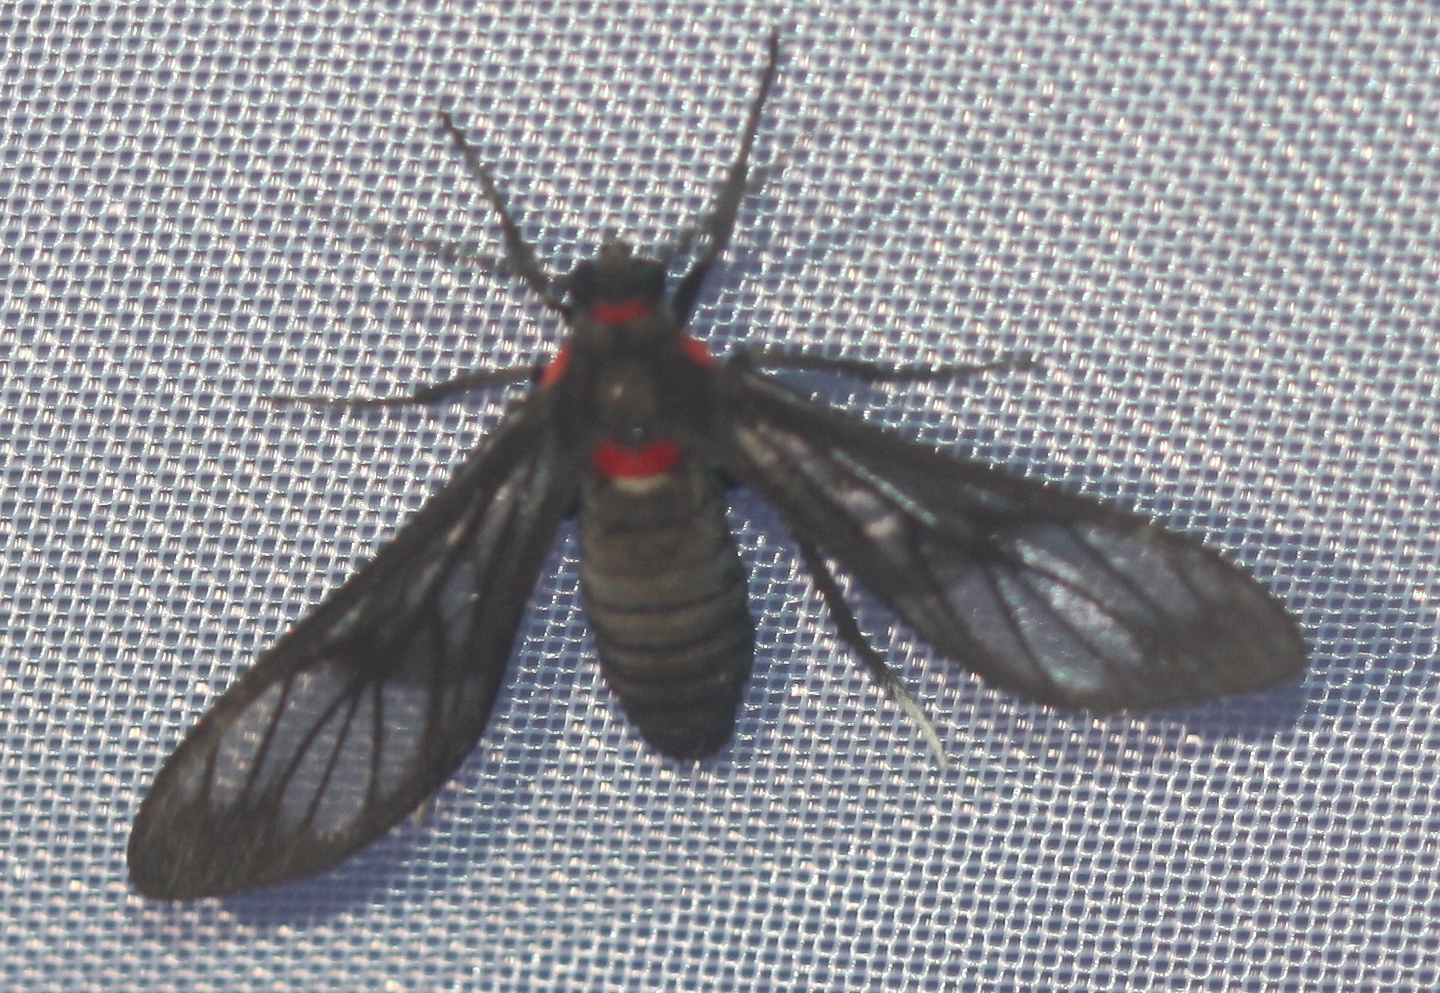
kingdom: Animalia
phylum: Arthropoda
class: Insecta
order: Lepidoptera
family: Erebidae
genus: Saurita
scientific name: Saurita phoenicosticta
